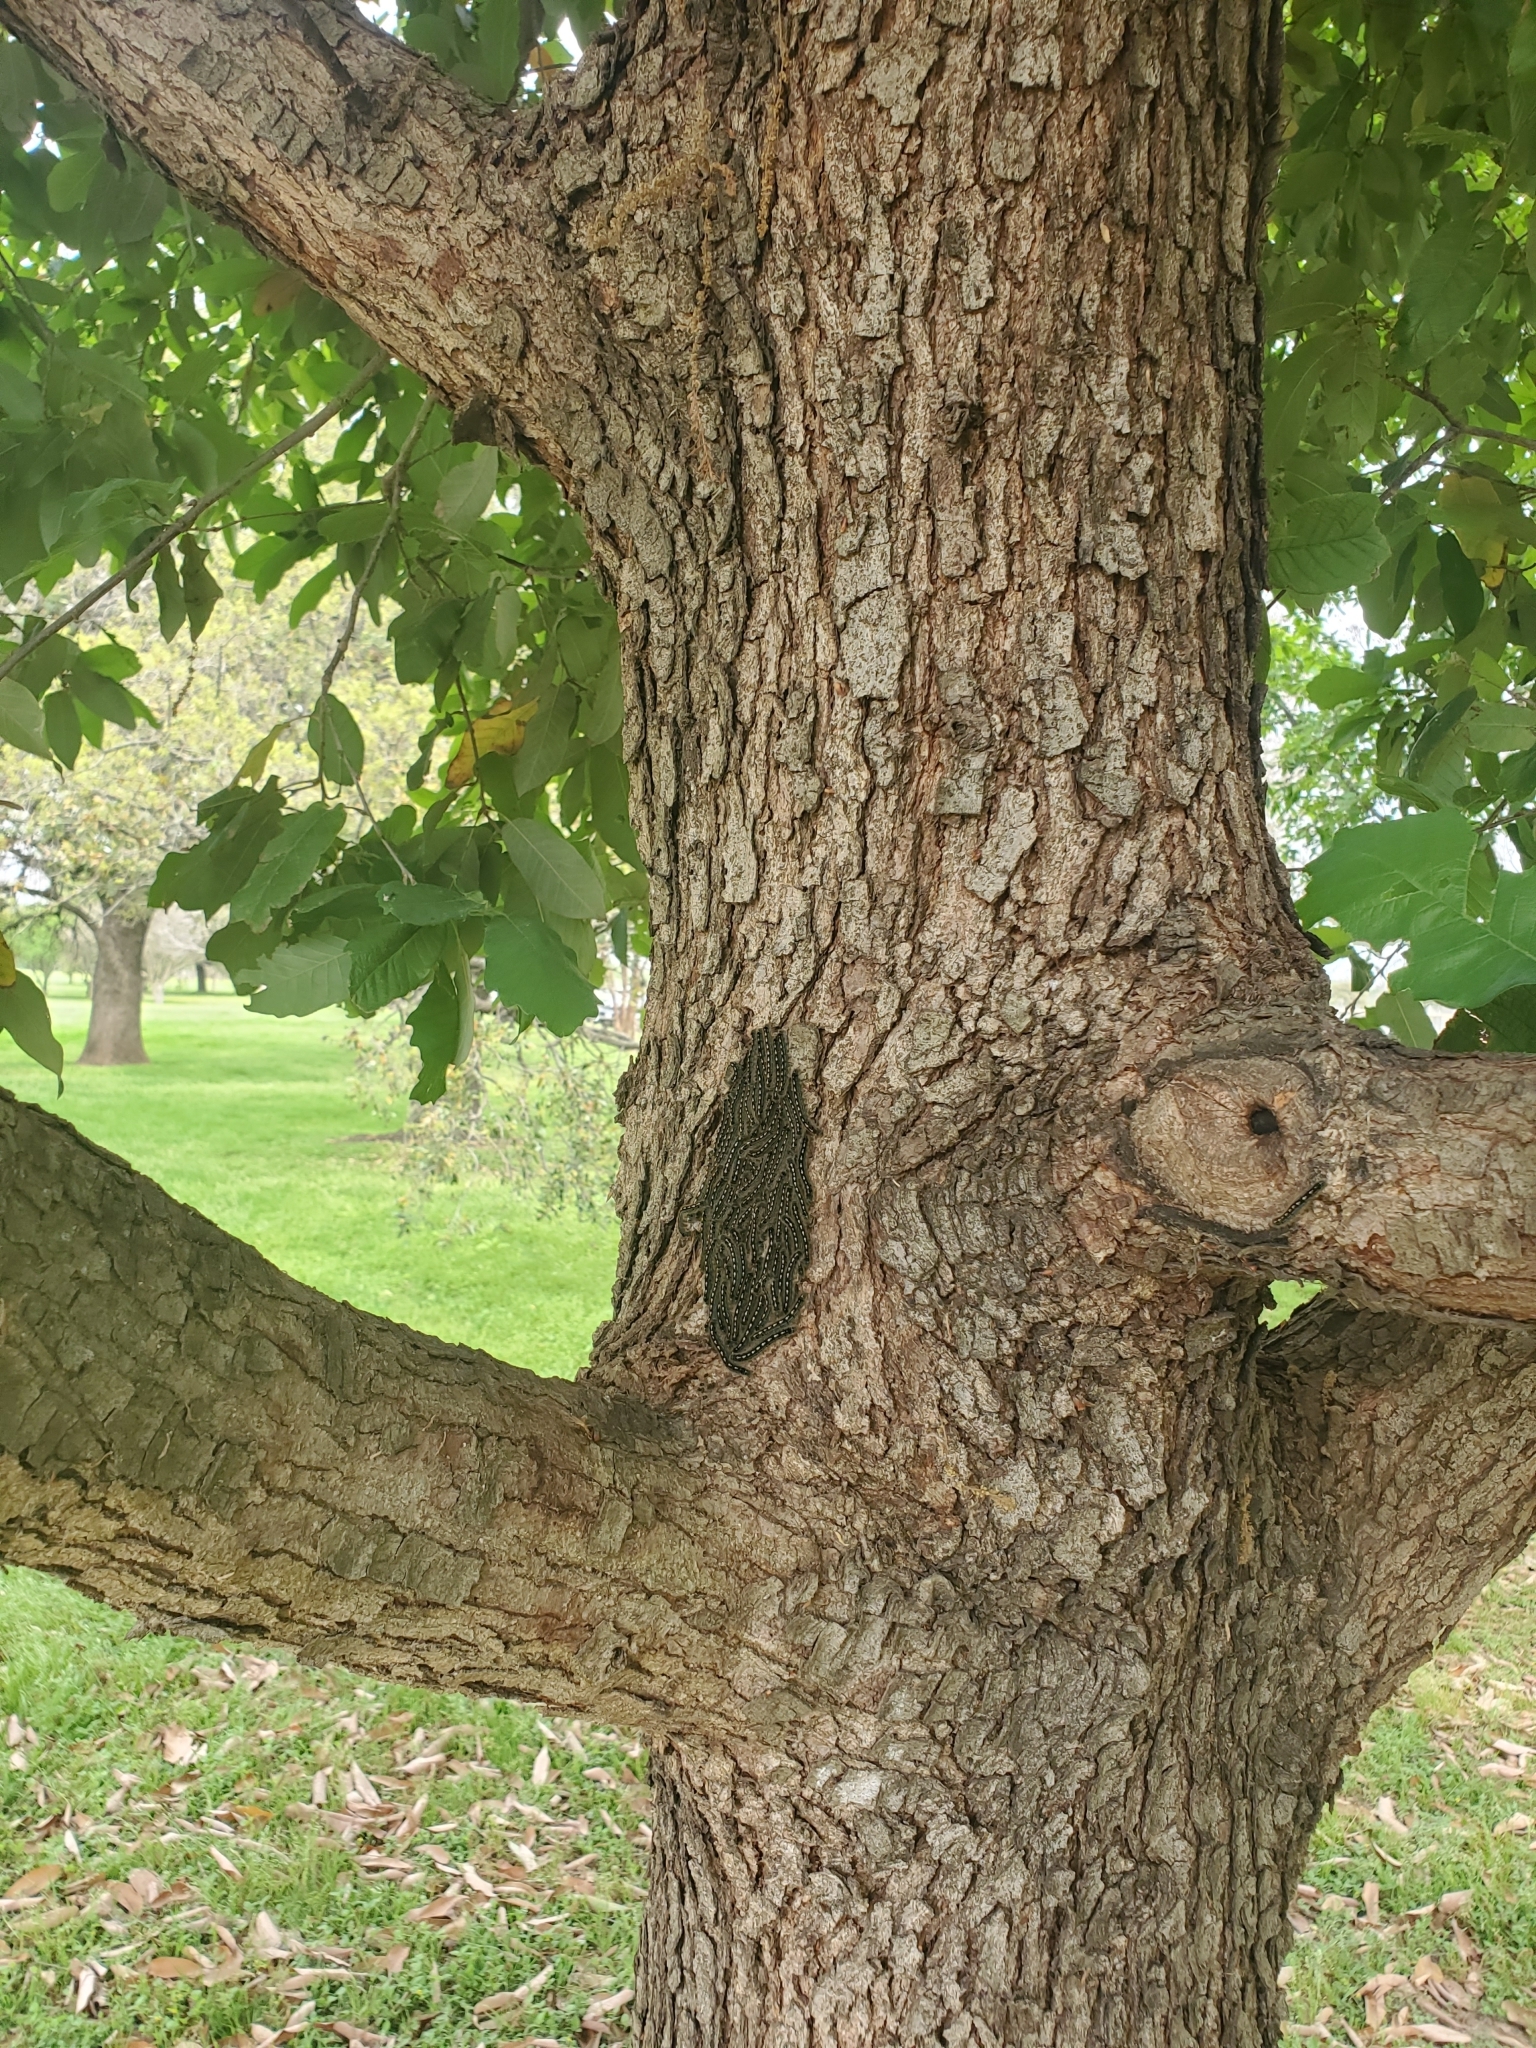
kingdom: Animalia
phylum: Arthropoda
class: Insecta
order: Lepidoptera
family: Lasiocampidae
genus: Malacosoma
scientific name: Malacosoma disstria
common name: Forest tent caterpillar
